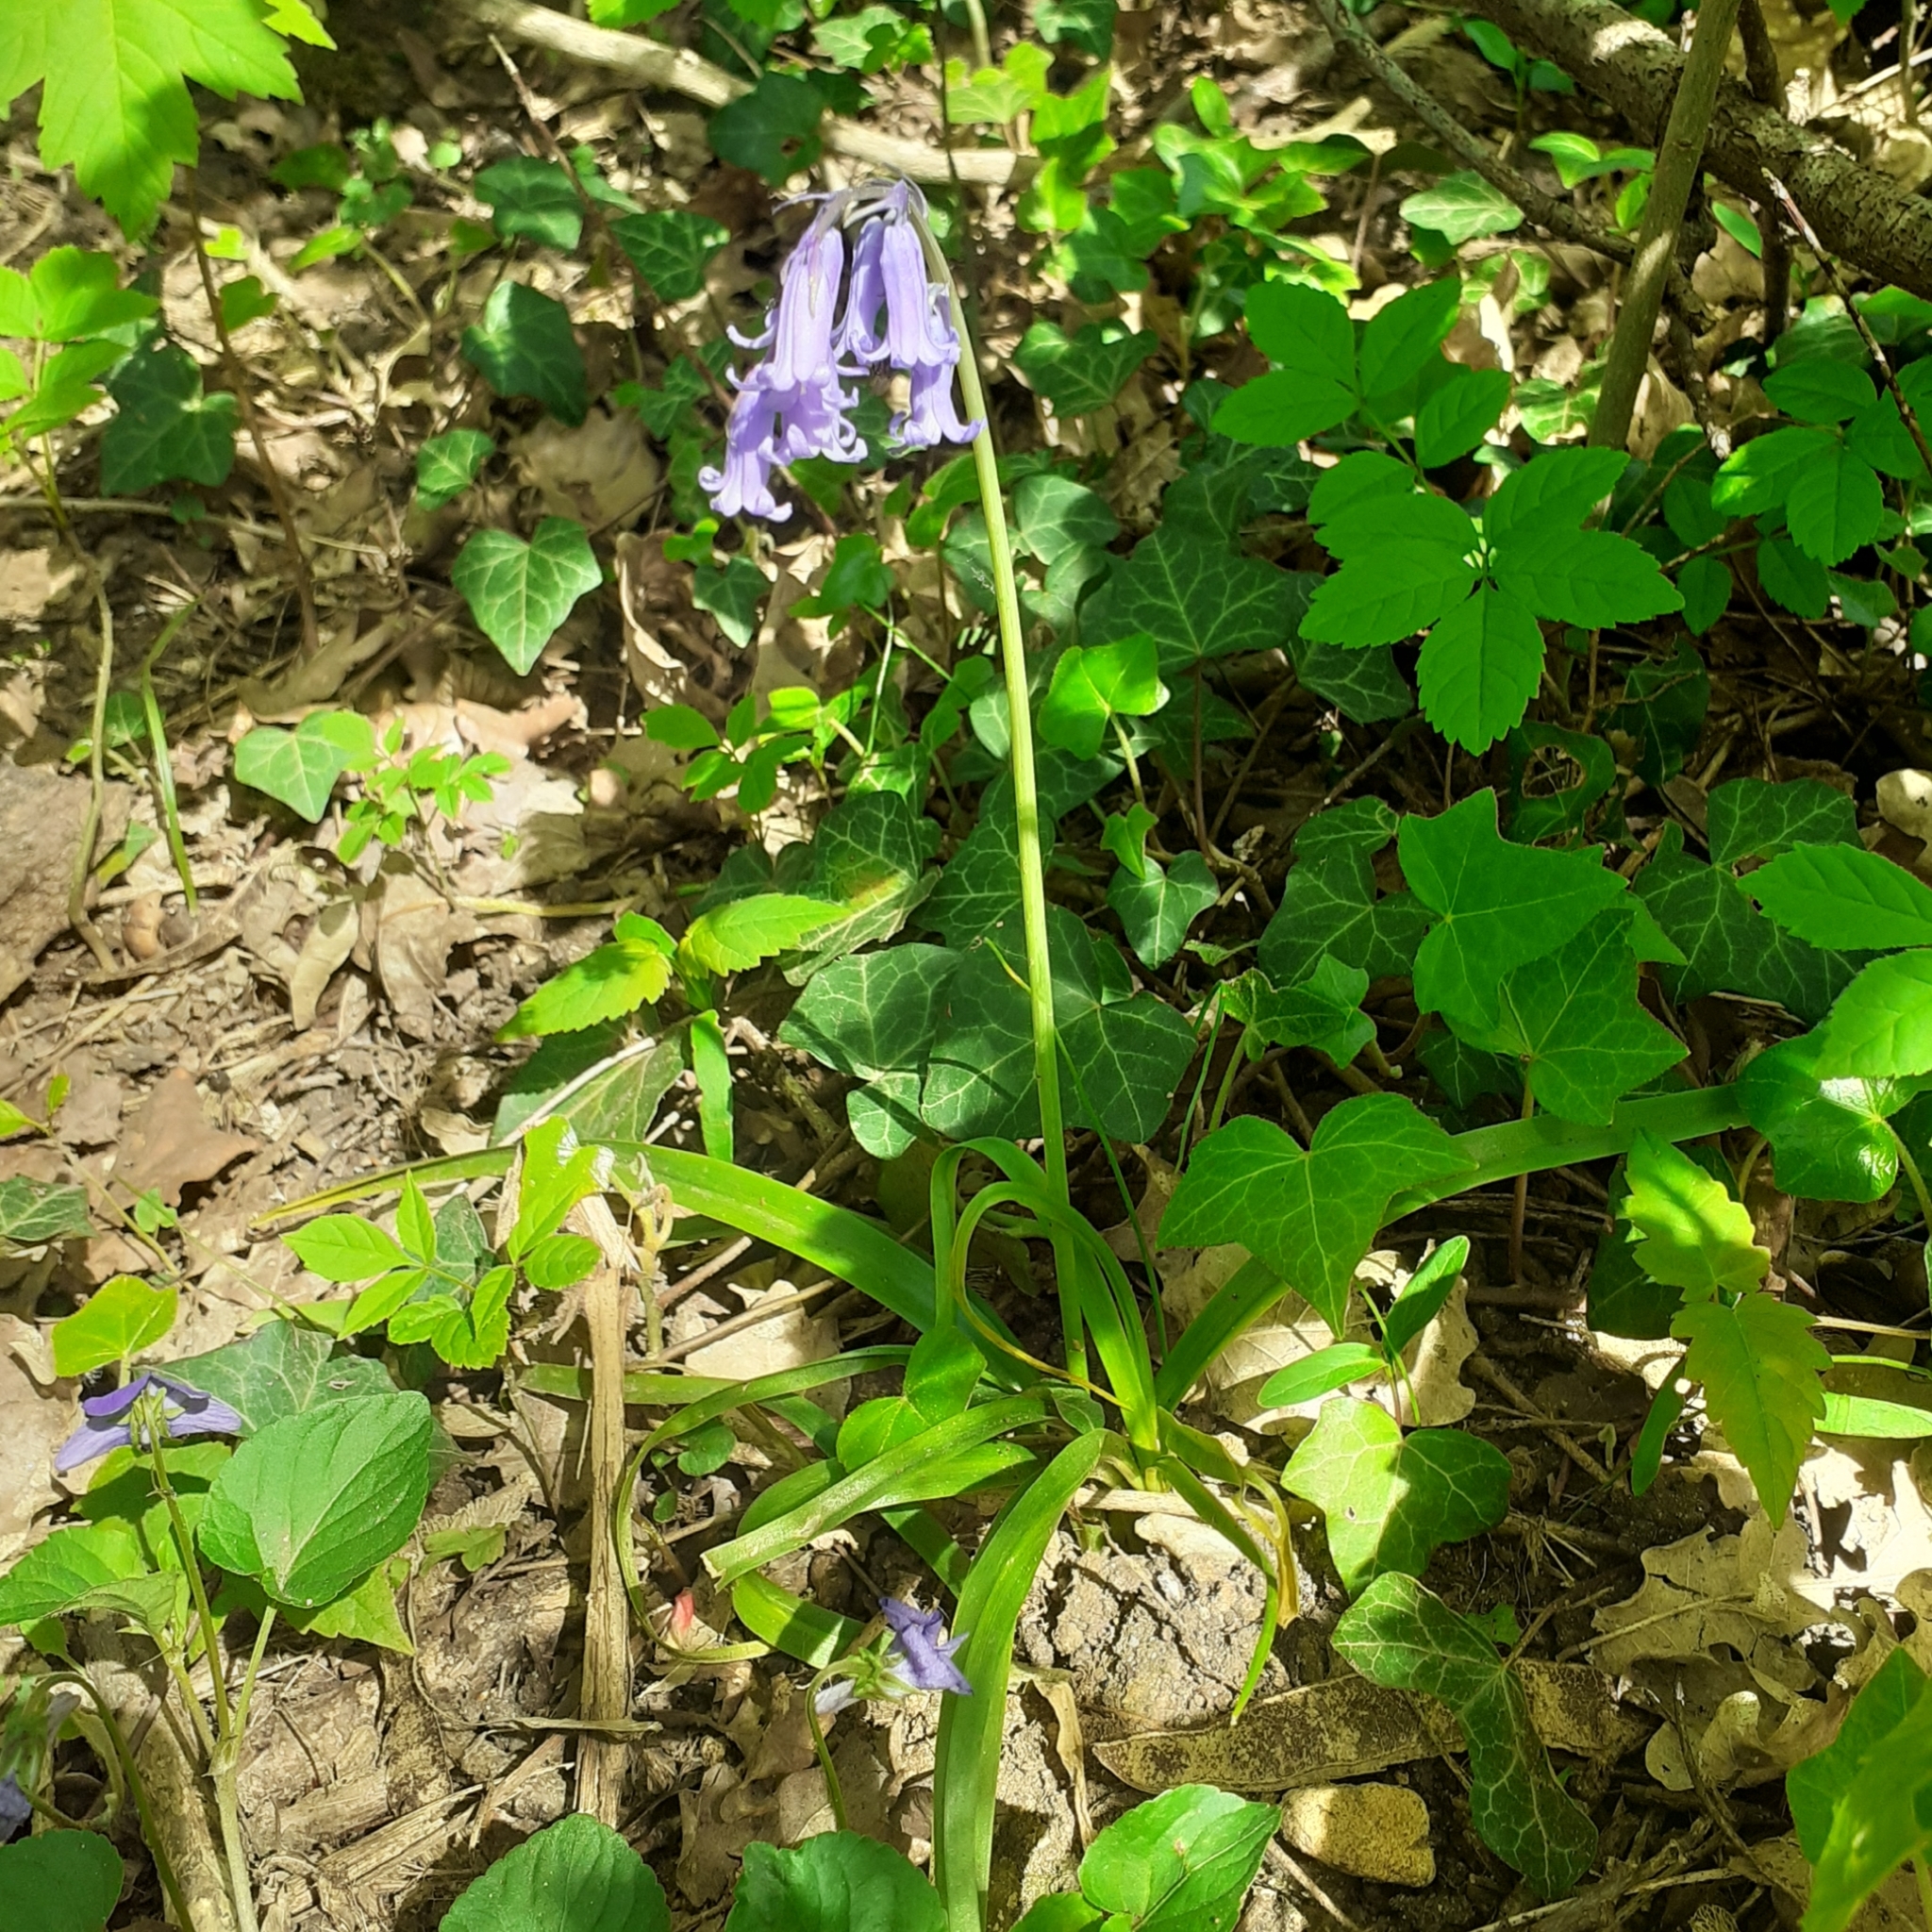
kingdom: Plantae
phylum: Tracheophyta
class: Liliopsida
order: Asparagales
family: Asparagaceae
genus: Hyacinthoides
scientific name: Hyacinthoides non-scripta
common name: Bluebell
